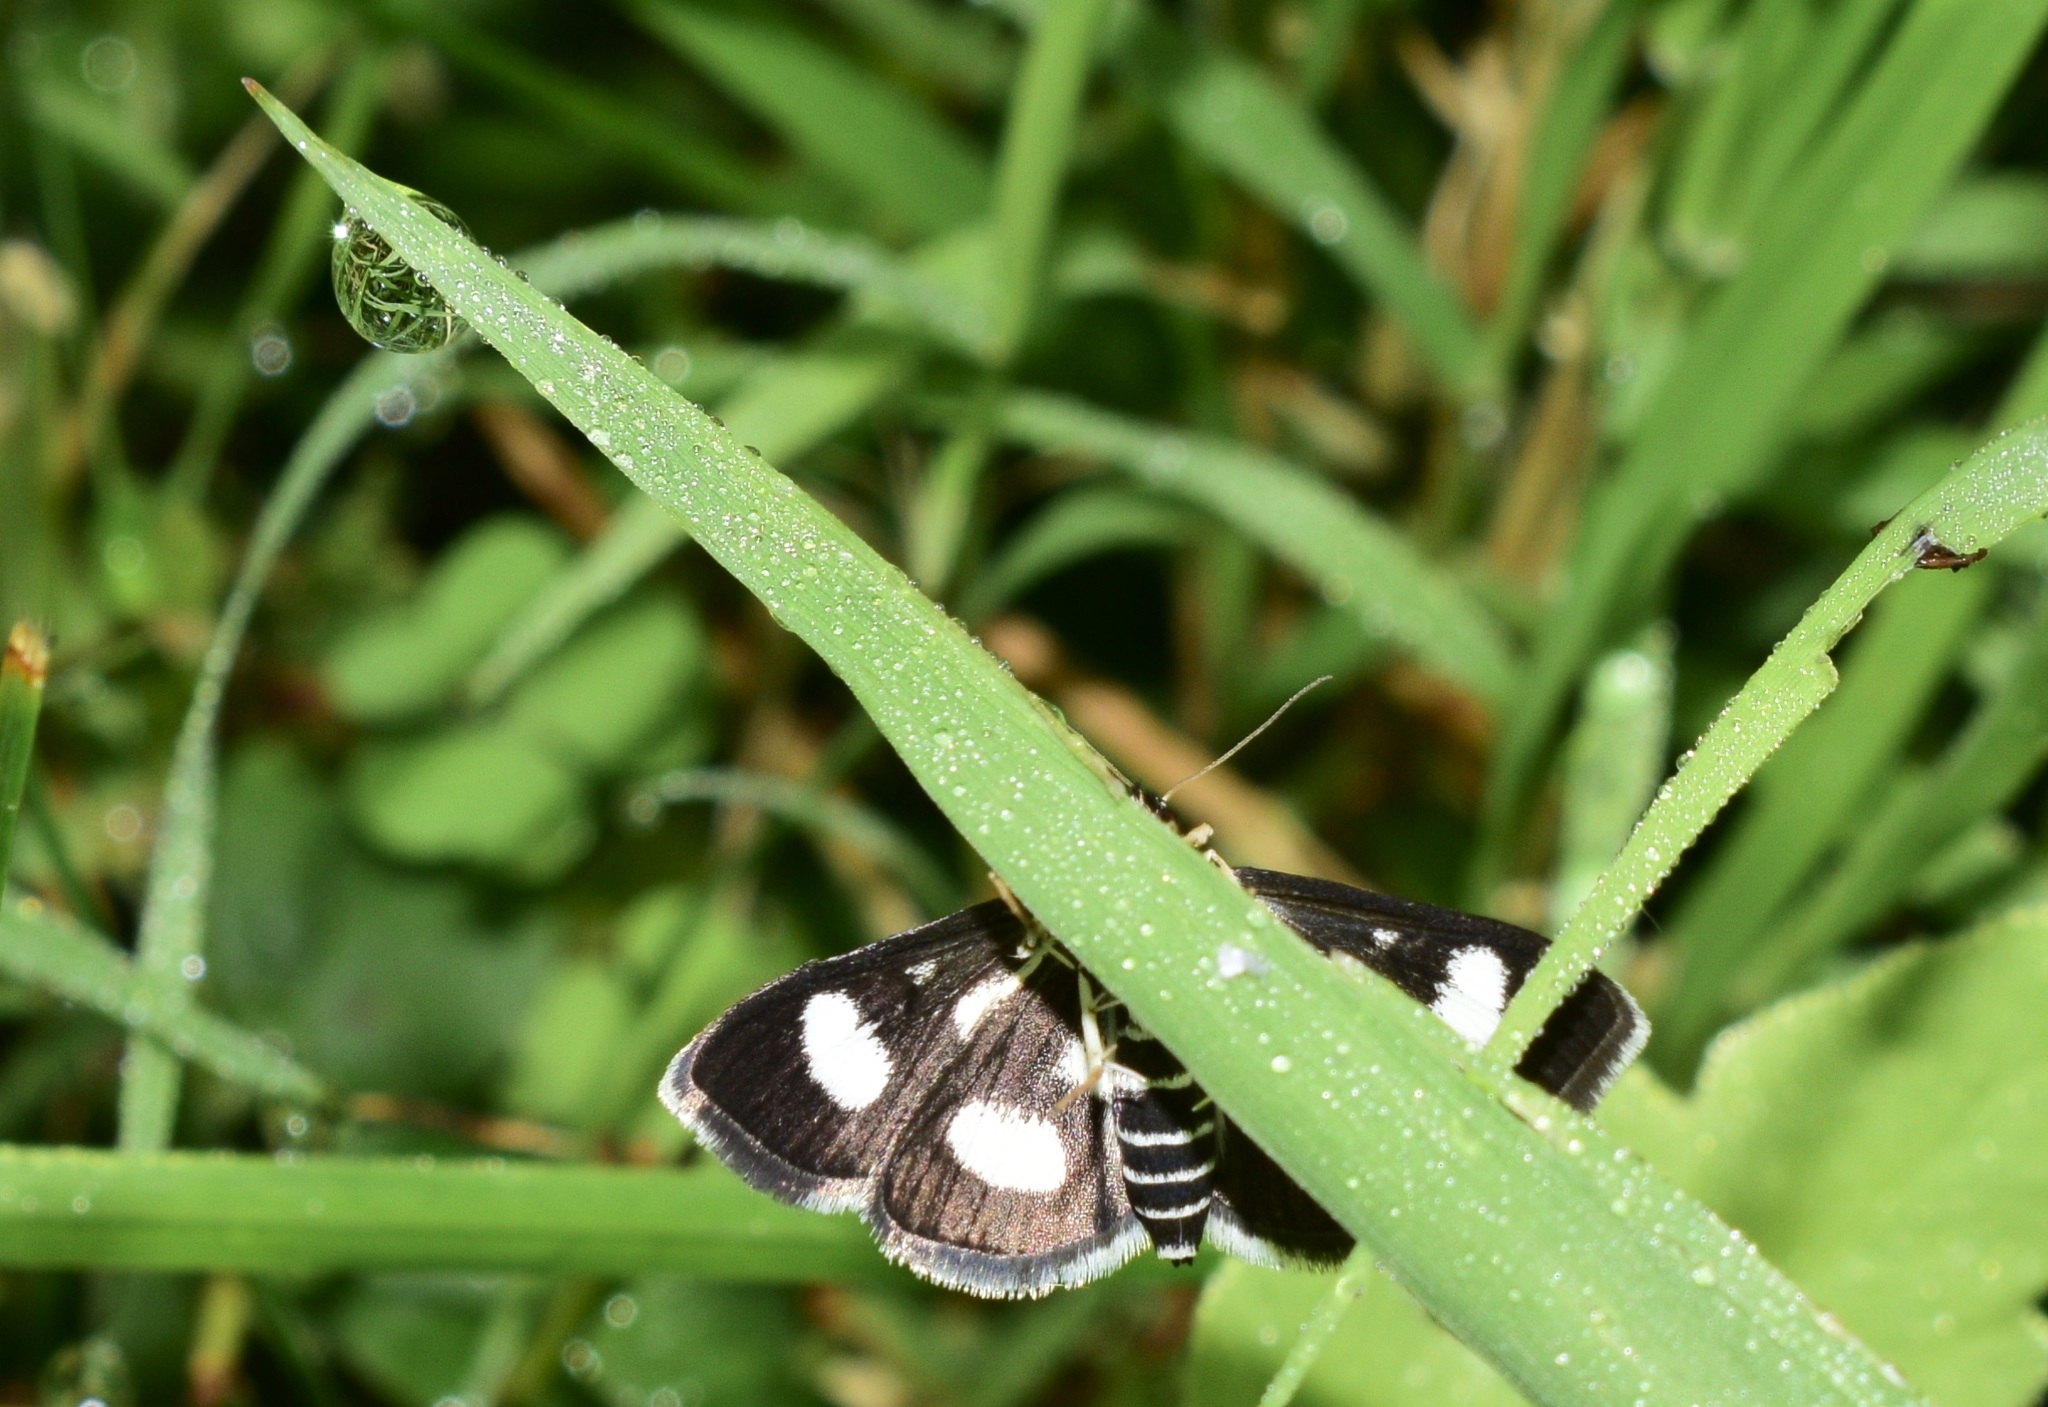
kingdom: Animalia
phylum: Arthropoda
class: Insecta
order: Lepidoptera
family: Crambidae
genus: Anania
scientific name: Anania funebris
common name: White-spotted sable moth
